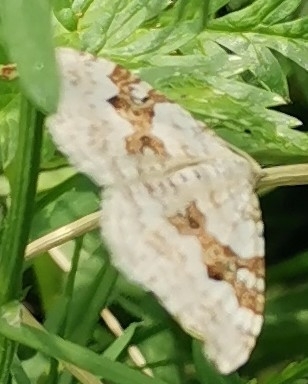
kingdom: Animalia
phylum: Arthropoda
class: Insecta
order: Lepidoptera
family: Geometridae
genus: Xanthorhoe
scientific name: Xanthorhoe montanata
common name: Silver-ground carpet
